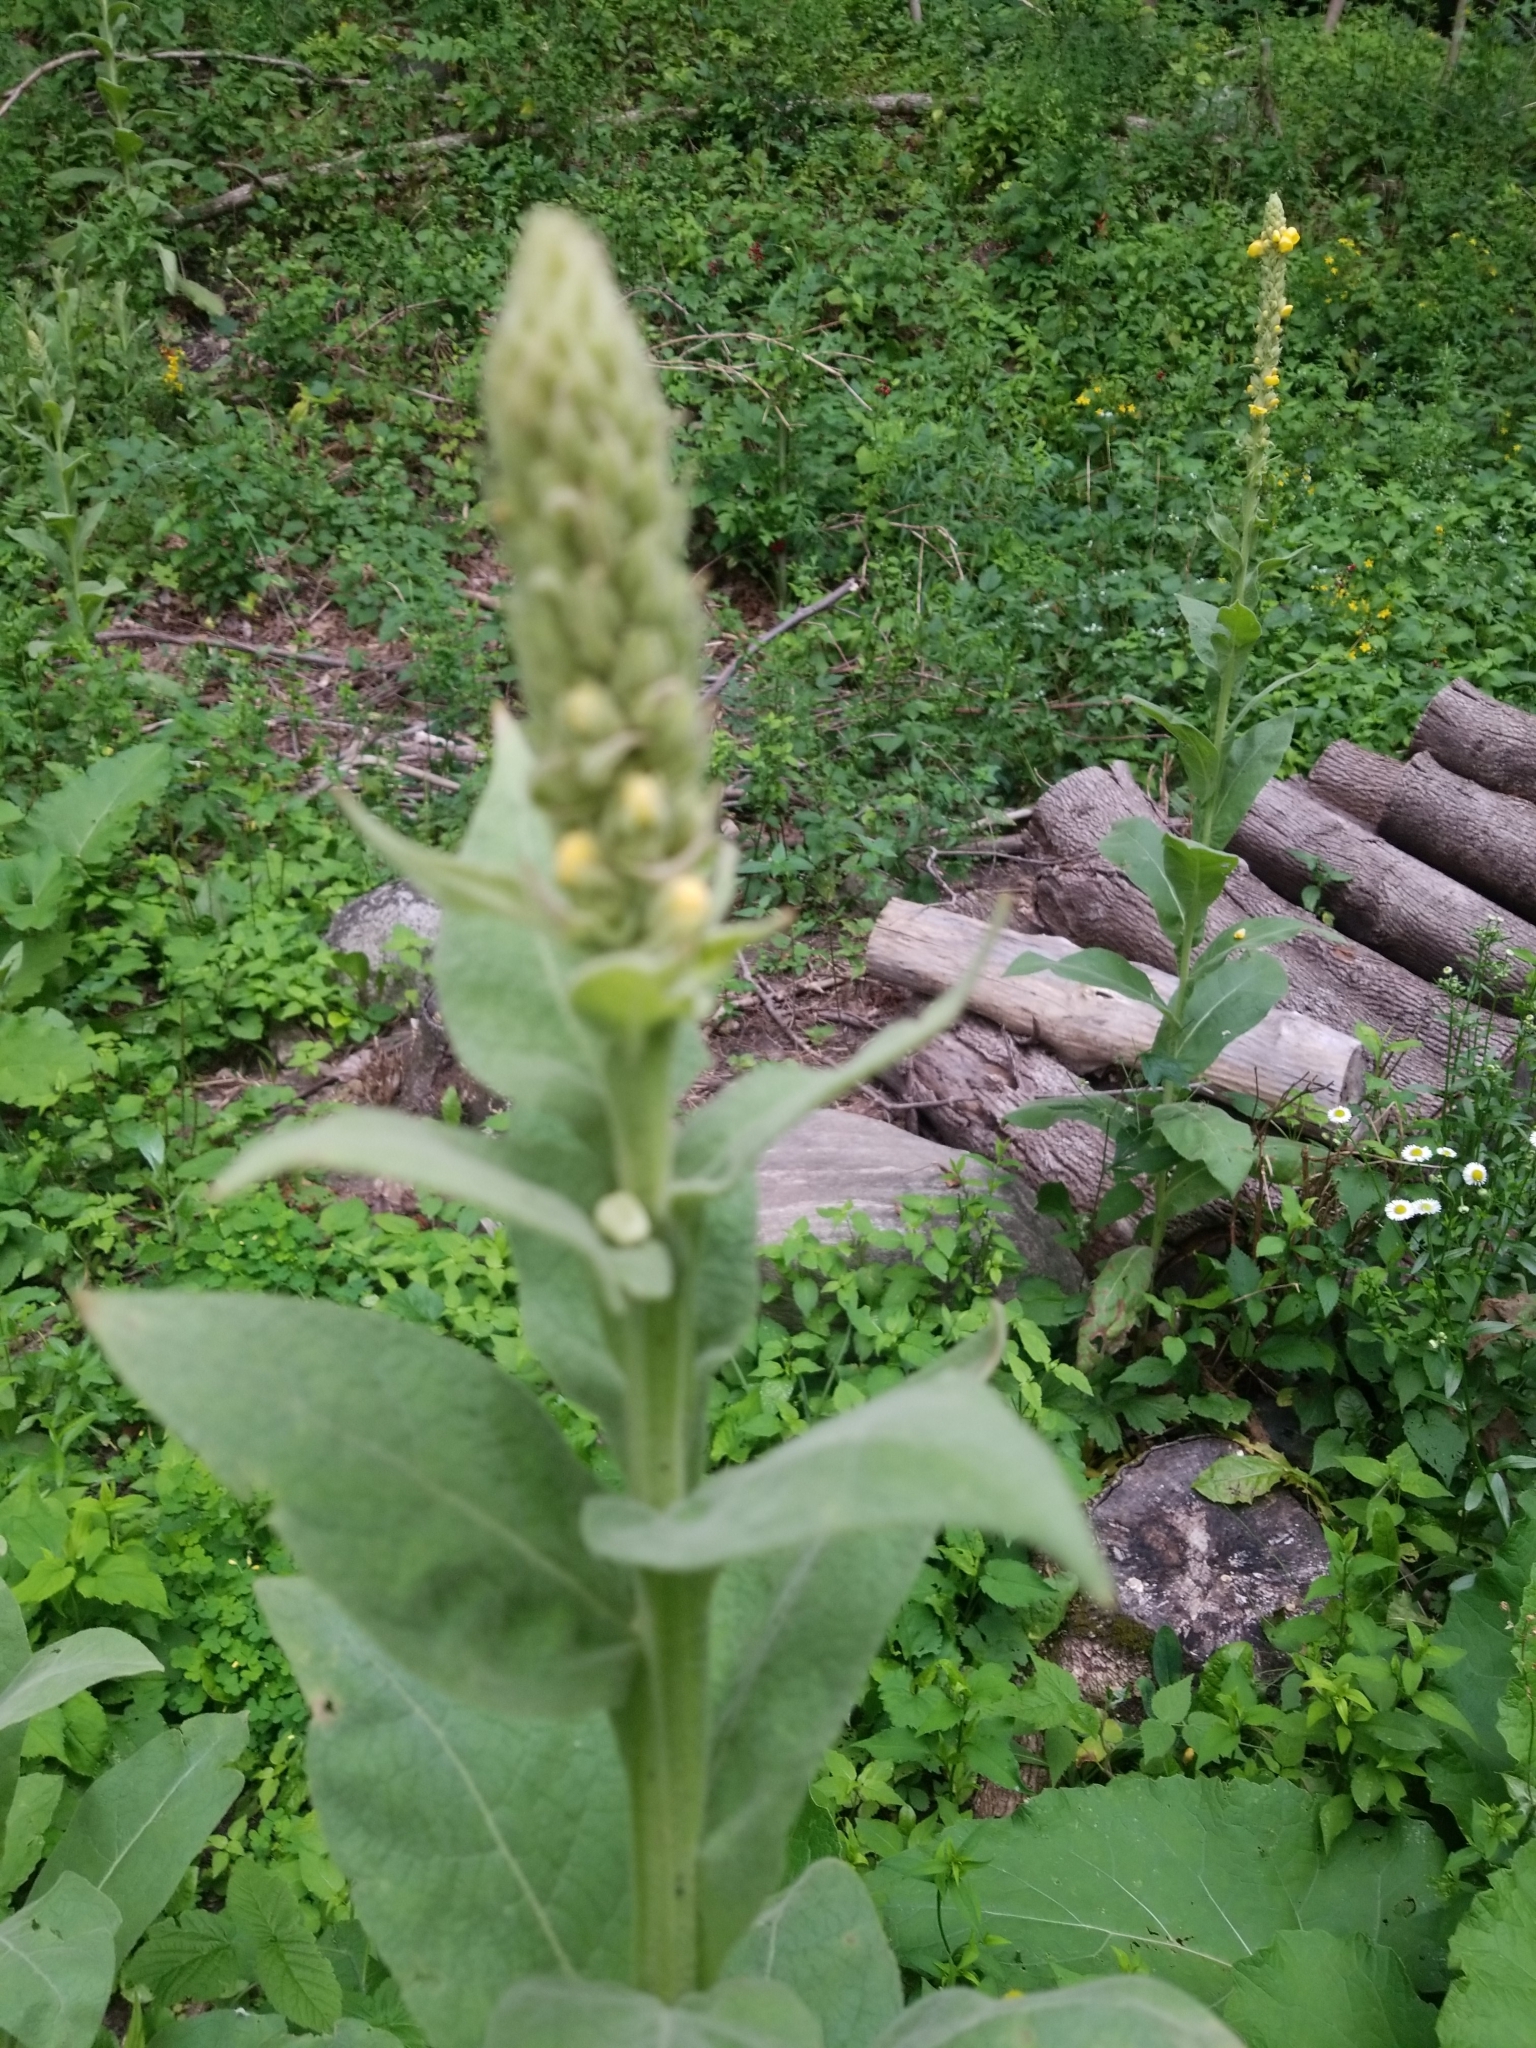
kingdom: Plantae
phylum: Tracheophyta
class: Magnoliopsida
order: Lamiales
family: Scrophulariaceae
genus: Verbascum
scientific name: Verbascum thapsus
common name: Common mullein
